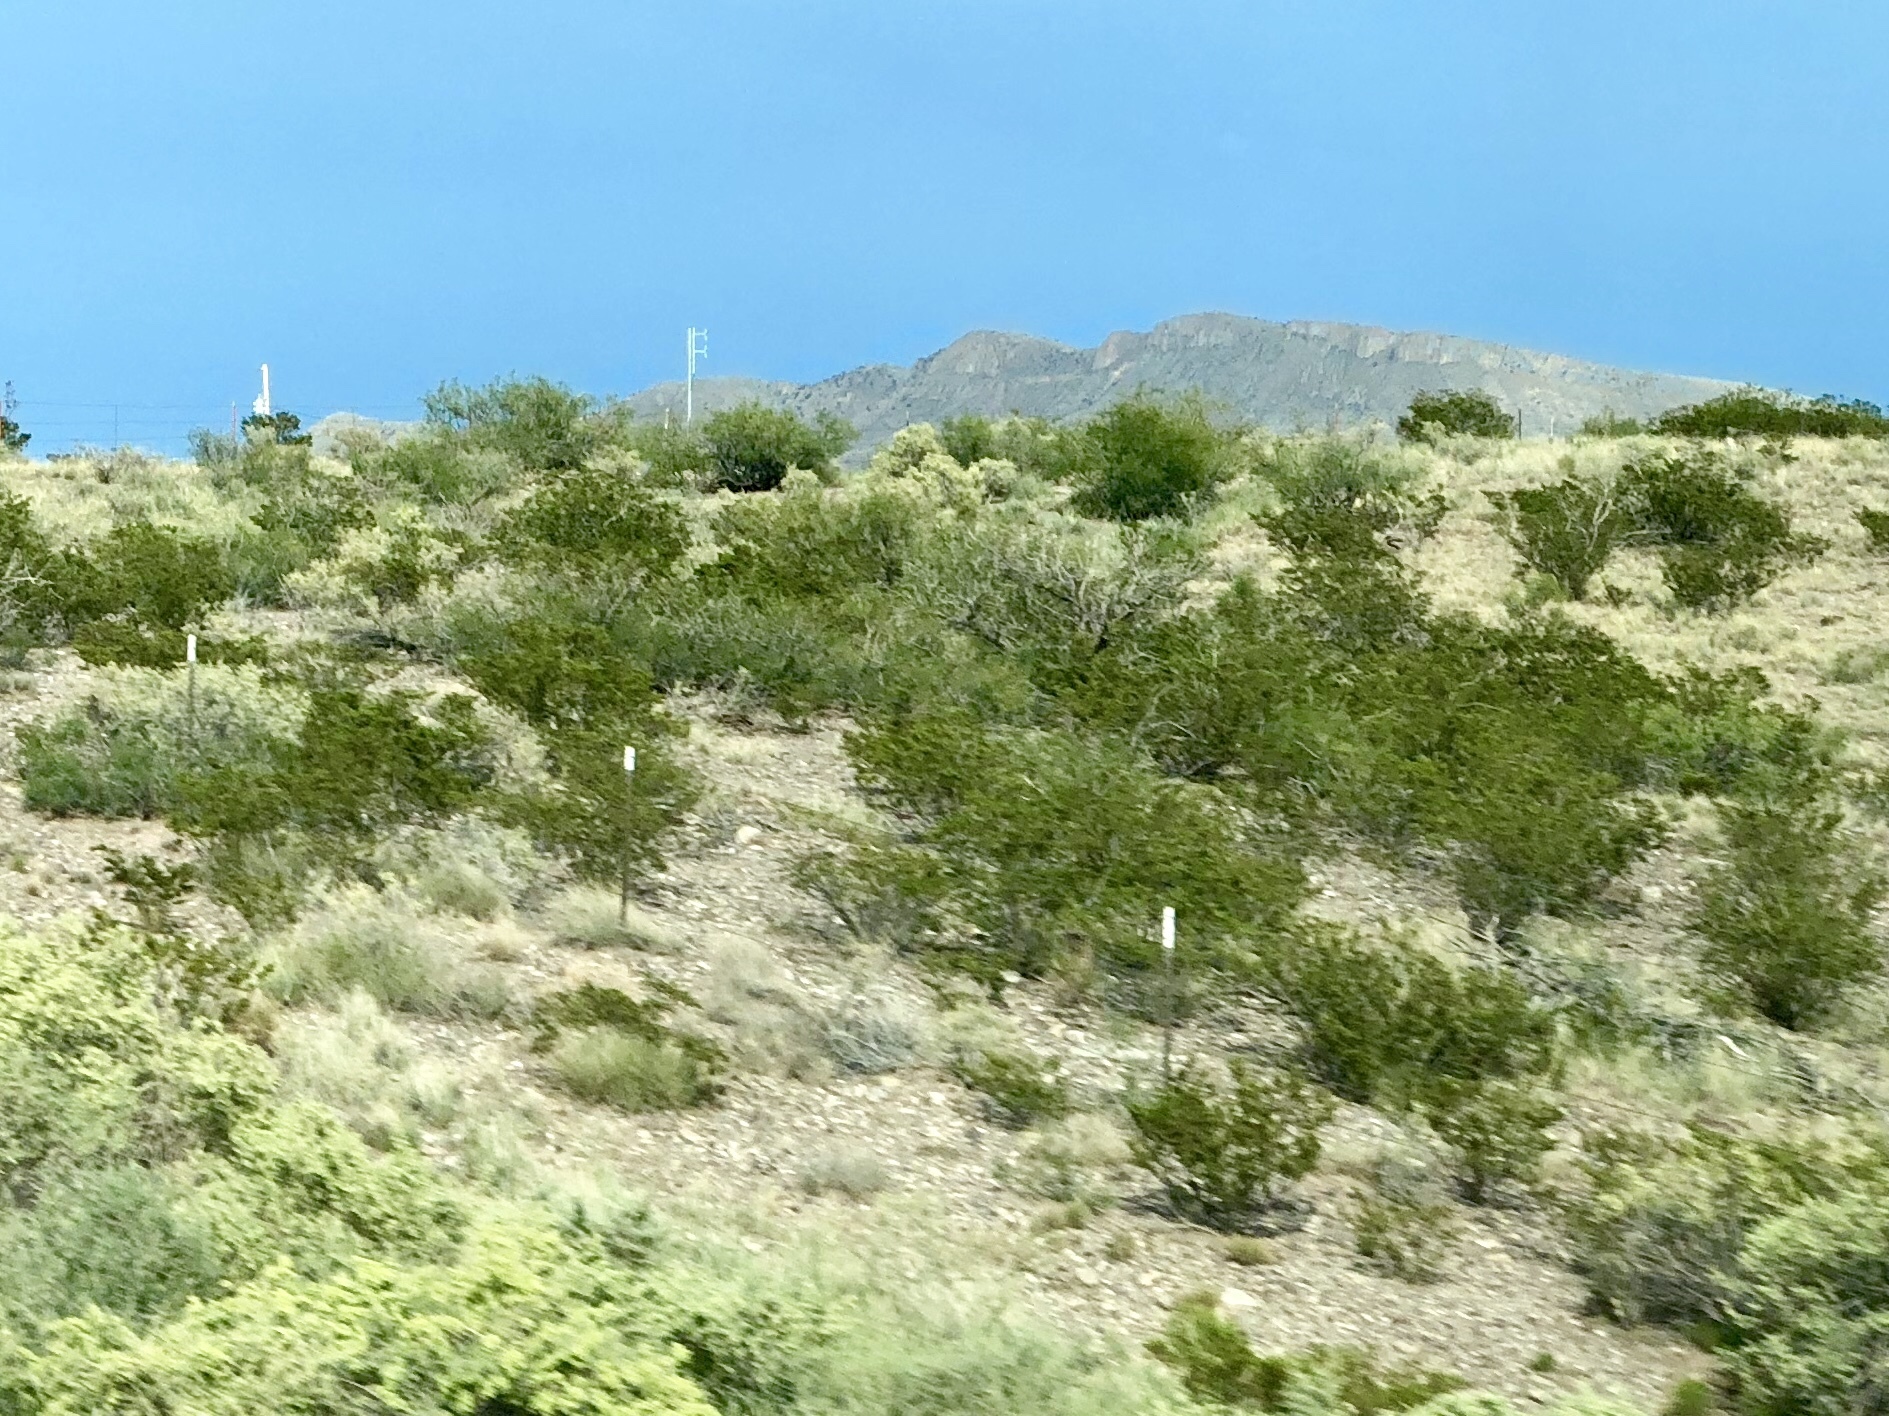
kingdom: Plantae
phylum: Tracheophyta
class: Magnoliopsida
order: Zygophyllales
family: Zygophyllaceae
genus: Larrea
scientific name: Larrea tridentata
